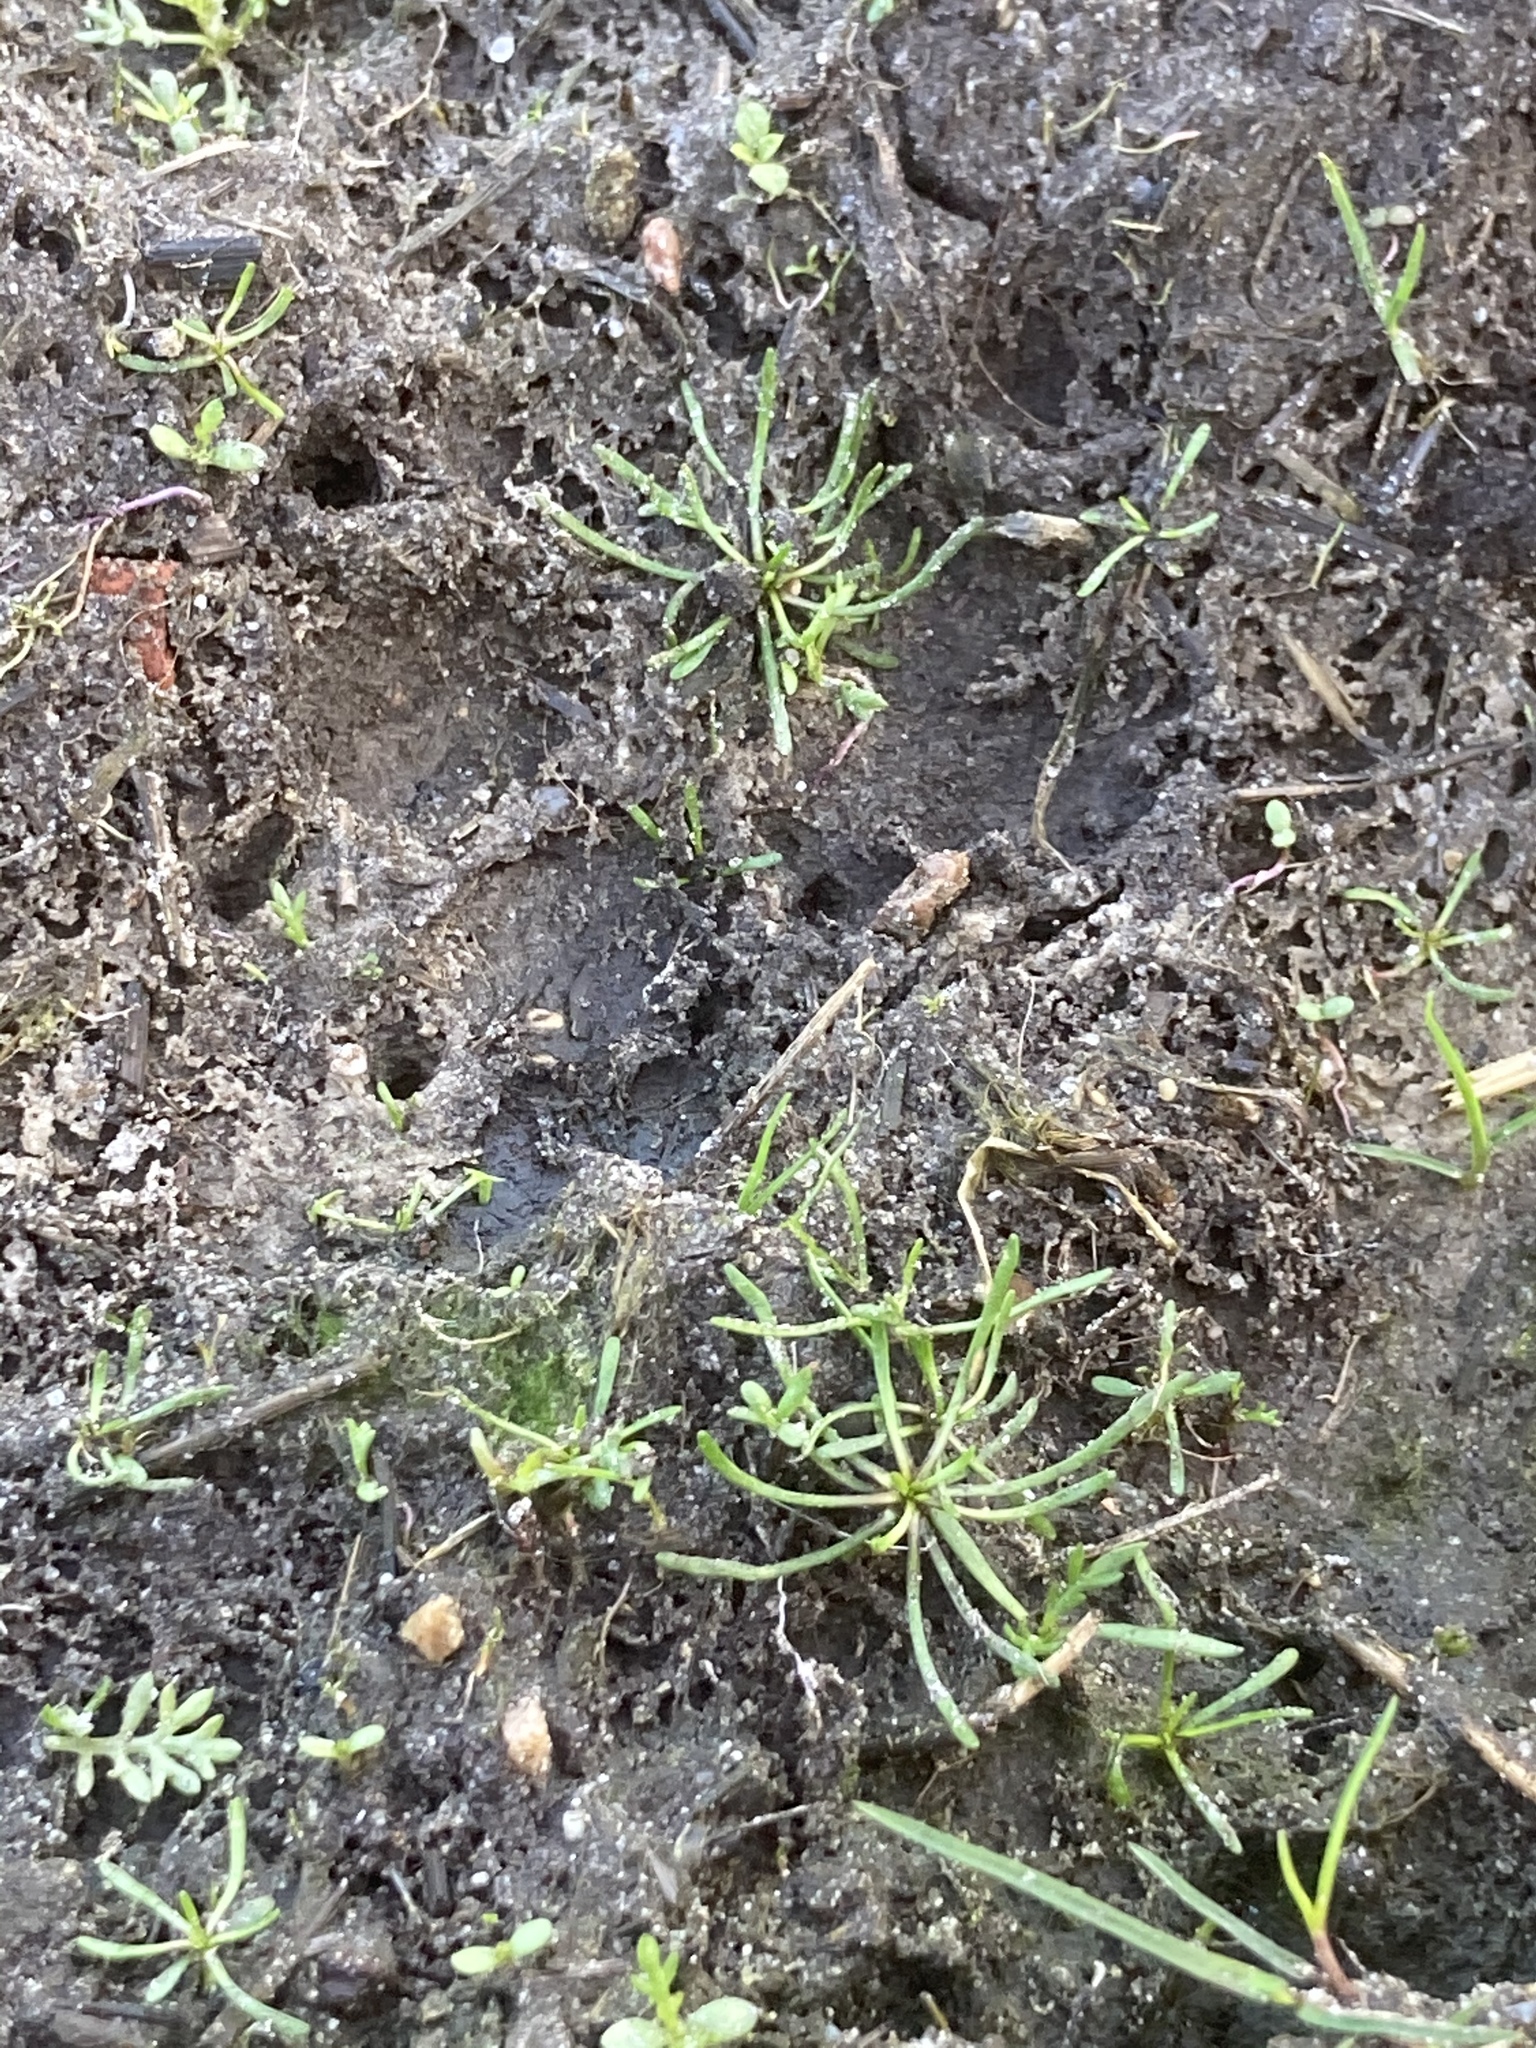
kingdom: Plantae
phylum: Tracheophyta
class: Magnoliopsida
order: Ranunculales
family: Ranunculaceae
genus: Myosurus
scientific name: Myosurus minimus
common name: Mousetail
